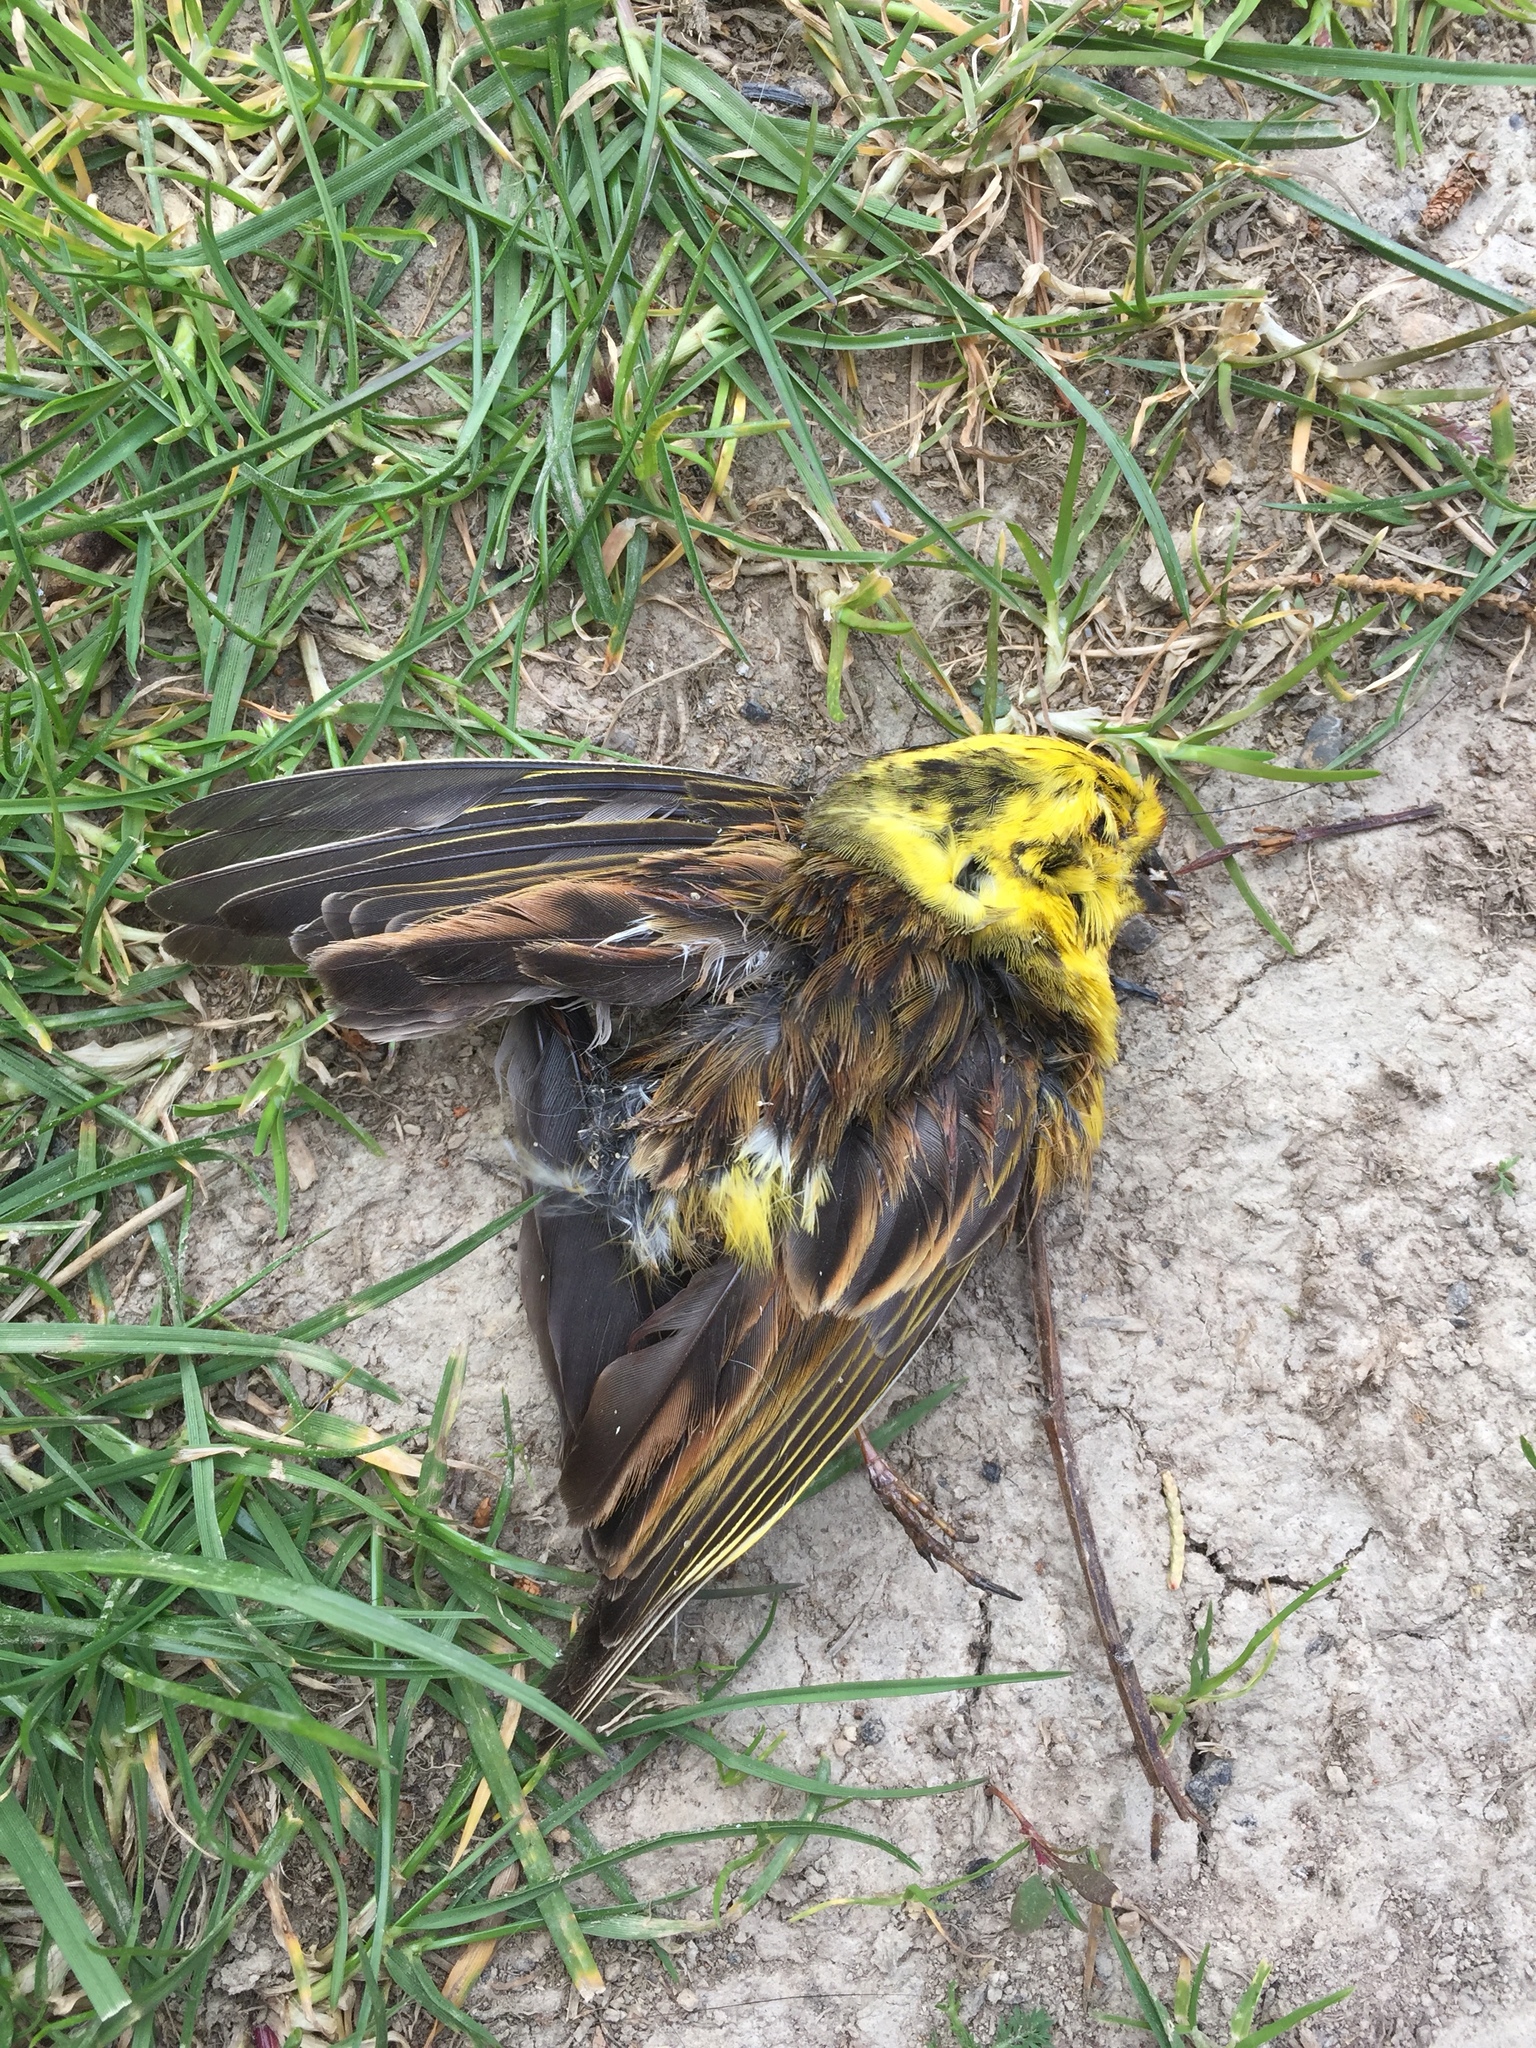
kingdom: Animalia
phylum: Chordata
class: Aves
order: Passeriformes
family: Emberizidae
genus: Emberiza
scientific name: Emberiza citrinella
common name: Yellowhammer
